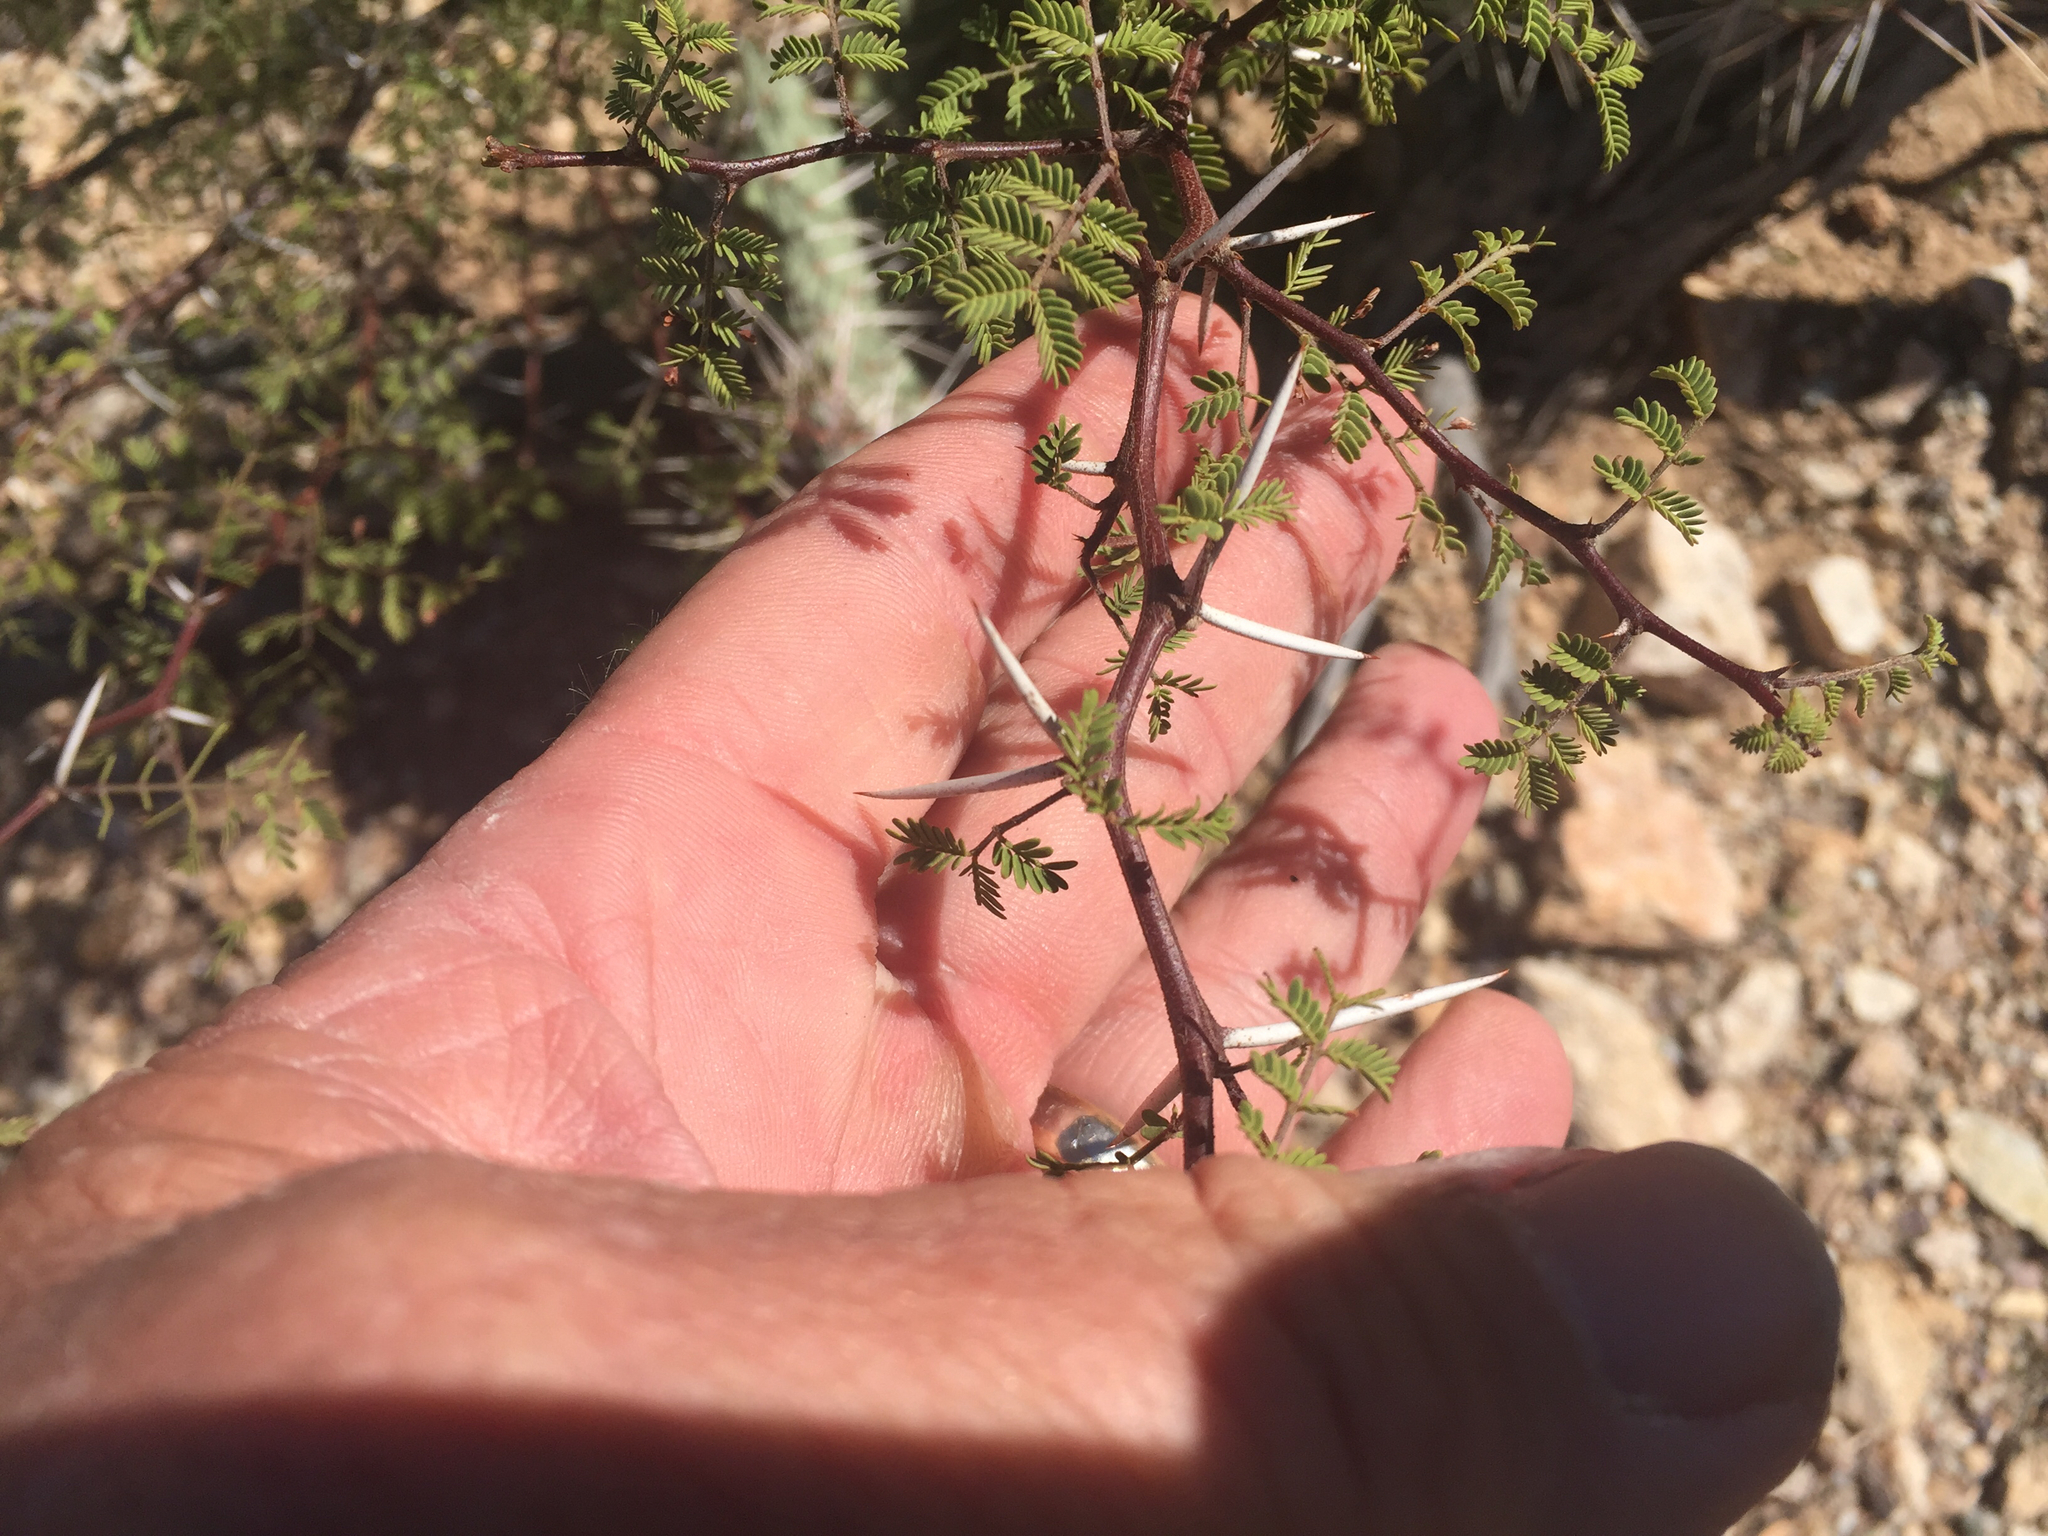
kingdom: Plantae
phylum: Tracheophyta
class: Magnoliopsida
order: Fabales
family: Fabaceae
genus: Vachellia
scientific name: Vachellia constricta
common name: Mescat acacia
